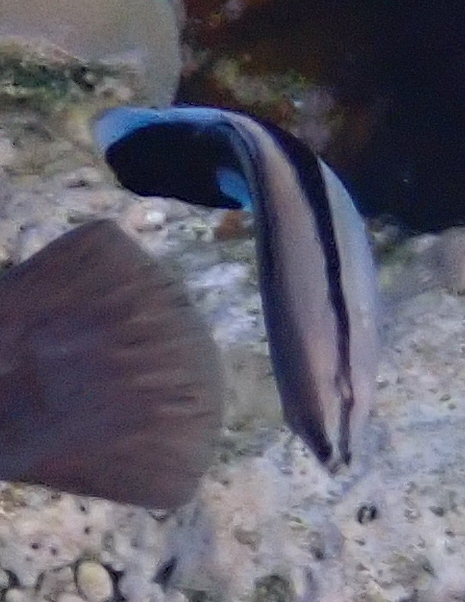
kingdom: Animalia
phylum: Chordata
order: Perciformes
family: Labridae
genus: Labroides
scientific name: Labroides dimidiatus
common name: Blue diesel wrasse
